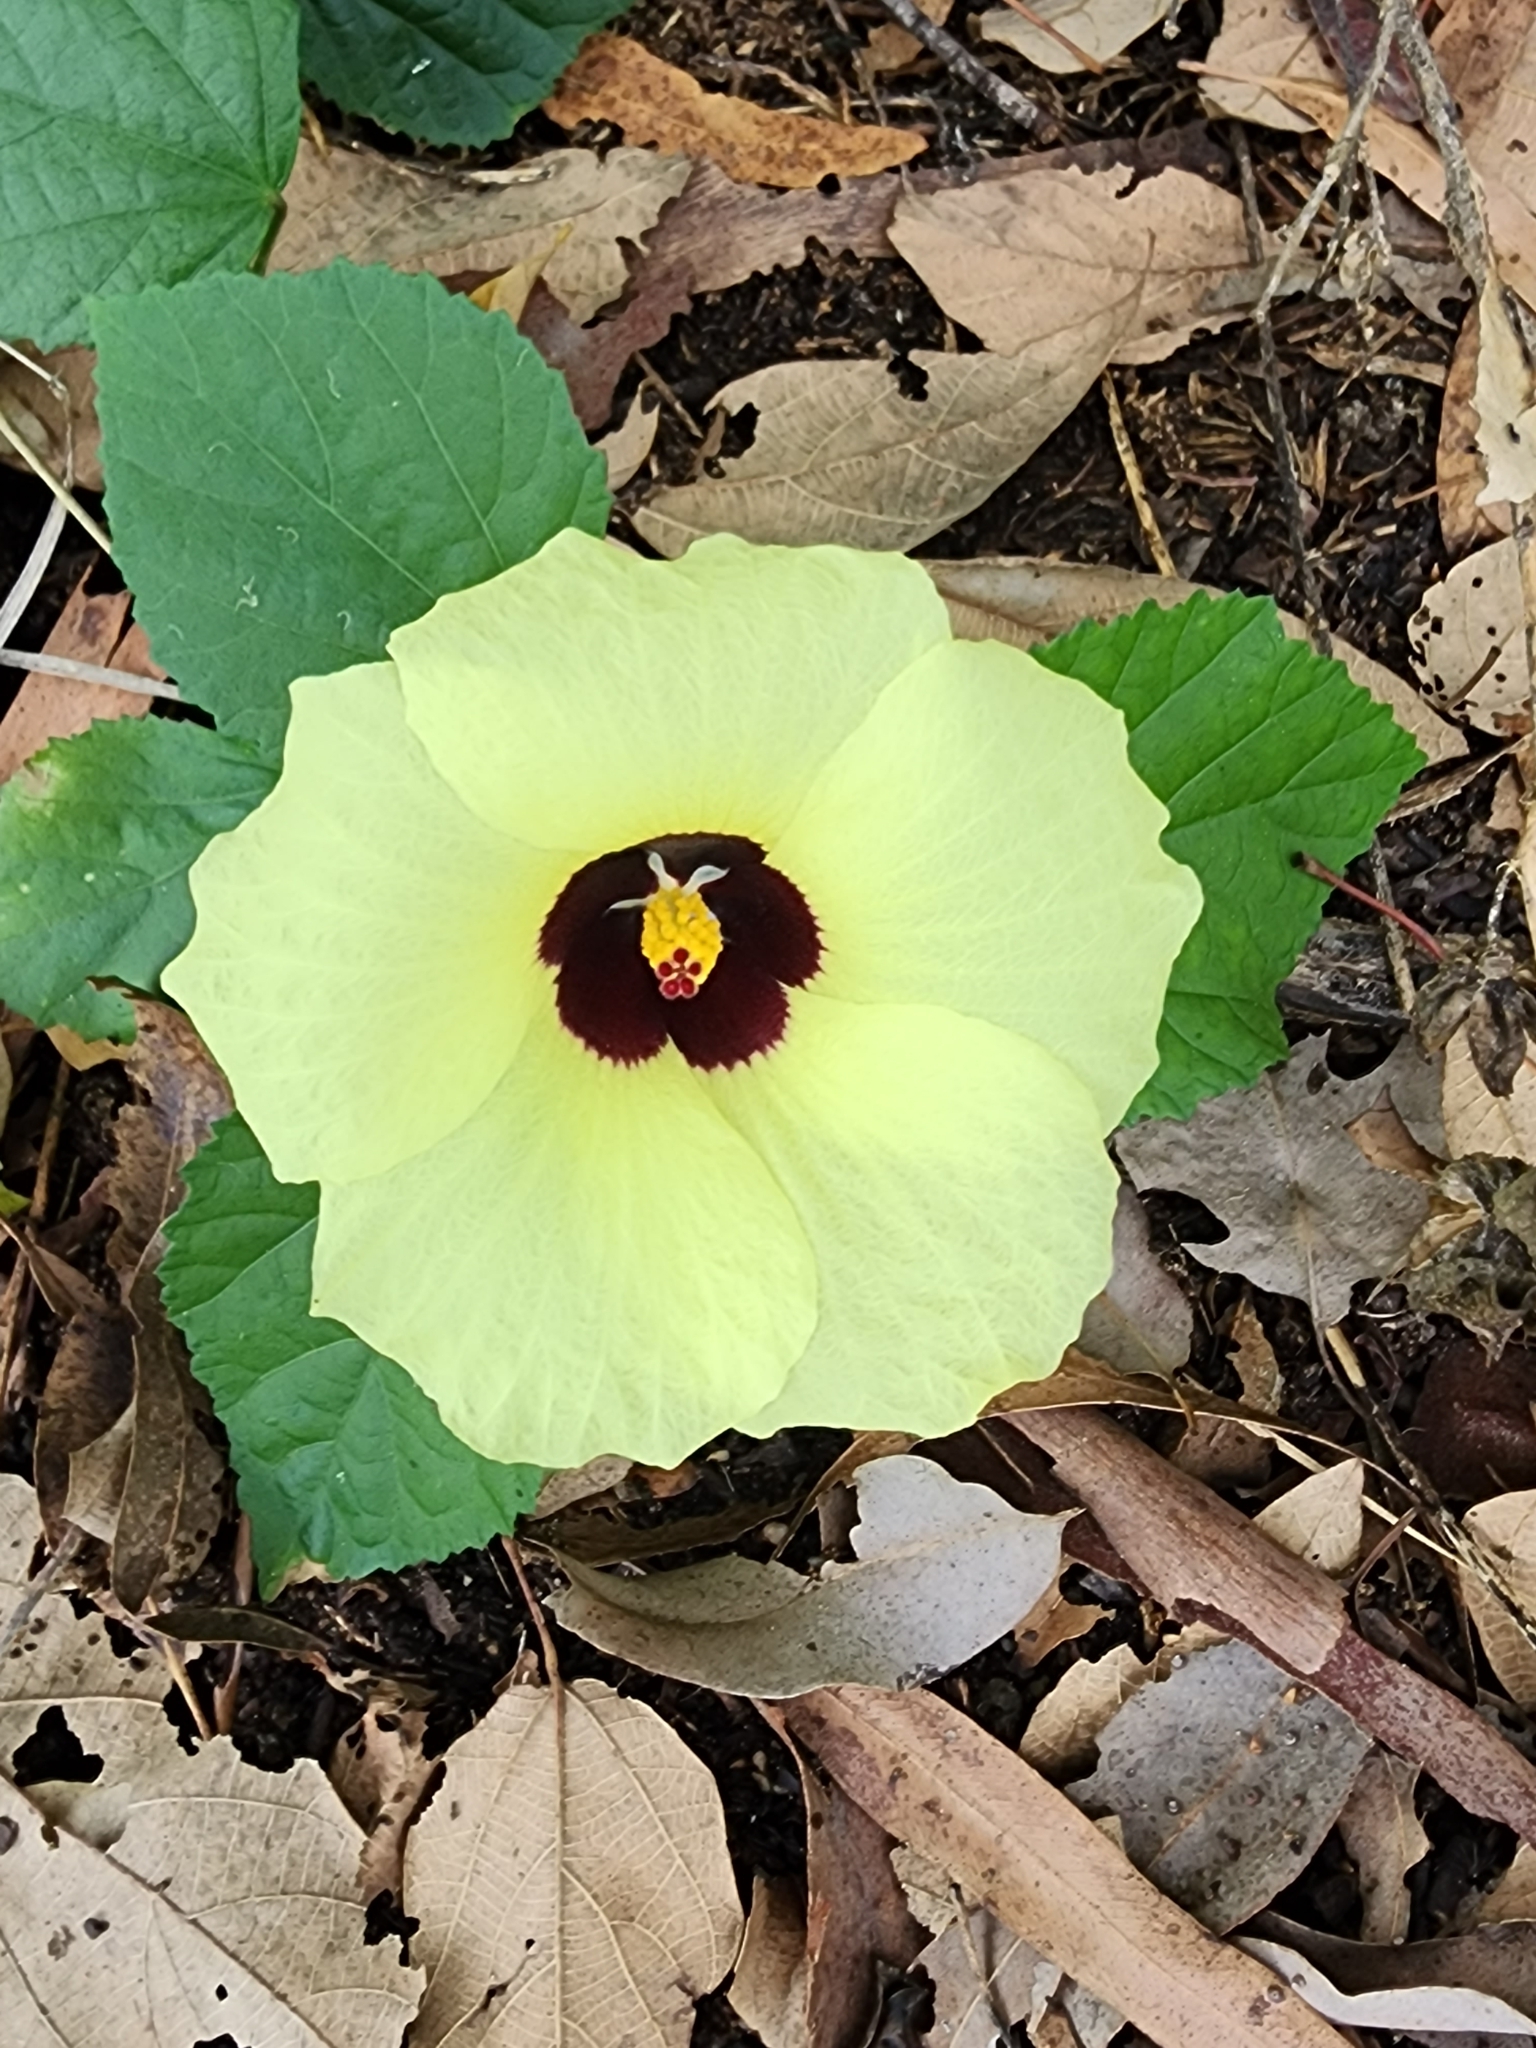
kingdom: Plantae
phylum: Tracheophyta
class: Magnoliopsida
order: Malvales
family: Malvaceae
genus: Hibiscus
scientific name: Hibiscus diversifolius
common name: Cape hibiscus
